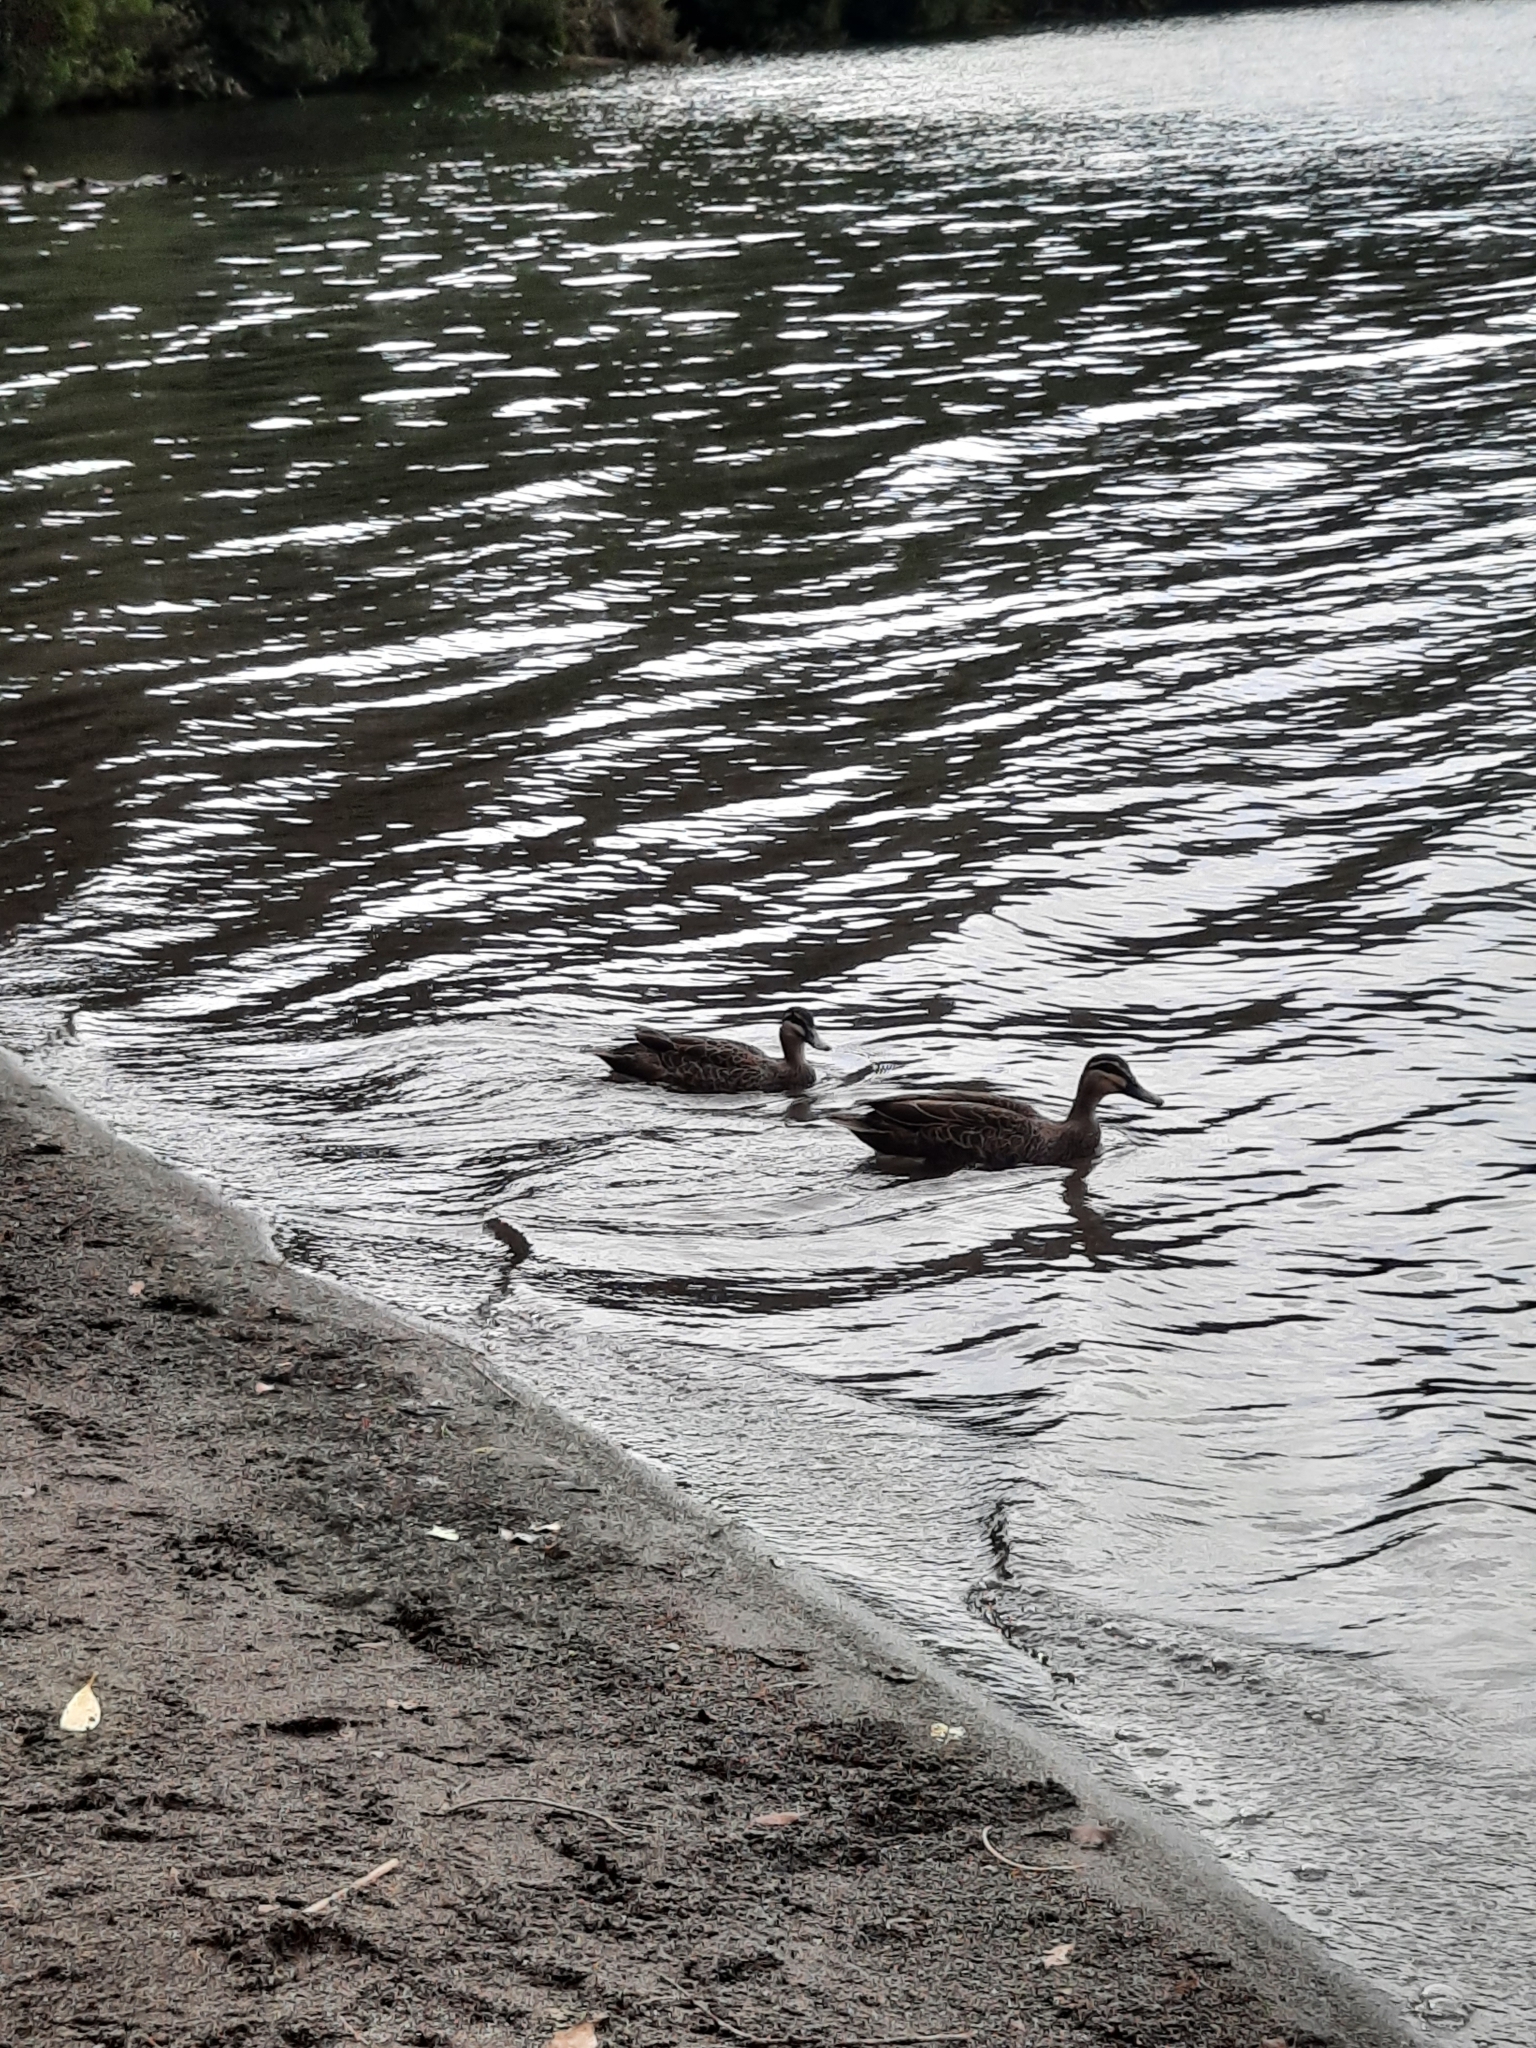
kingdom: Animalia
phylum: Chordata
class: Aves
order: Anseriformes
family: Anatidae
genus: Anas
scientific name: Anas superciliosa
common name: Pacific black duck
